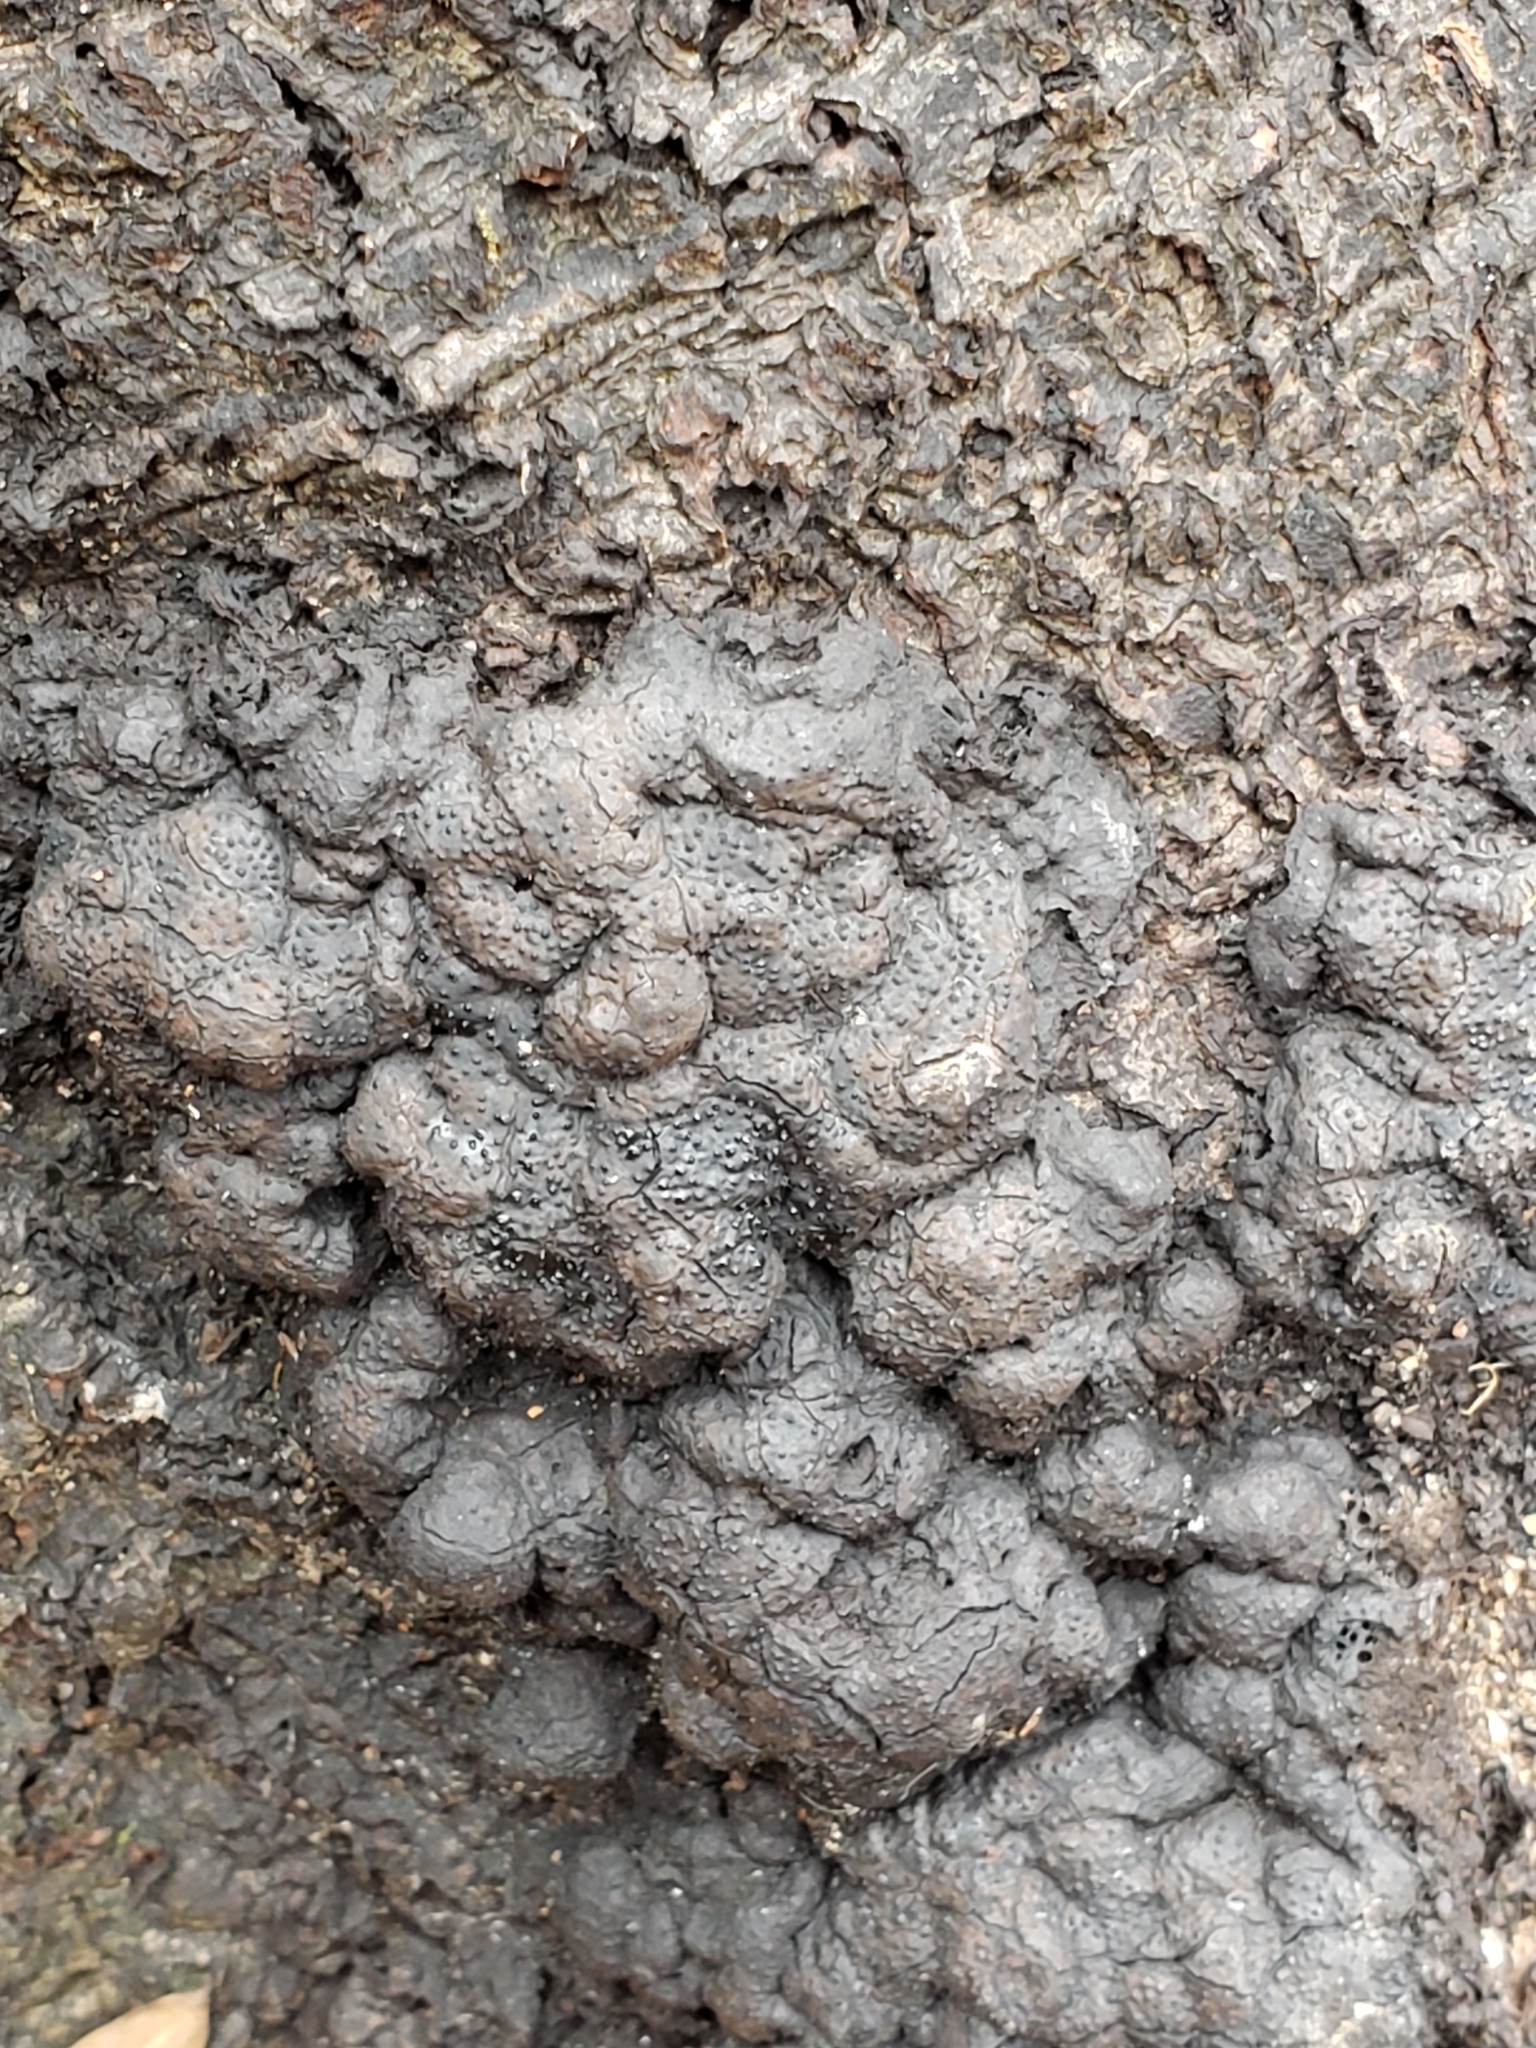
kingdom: Fungi
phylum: Ascomycota
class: Sordariomycetes
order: Xylariales
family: Xylariaceae
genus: Kretzschmaria
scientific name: Kretzschmaria deusta
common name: Brittle cinder
